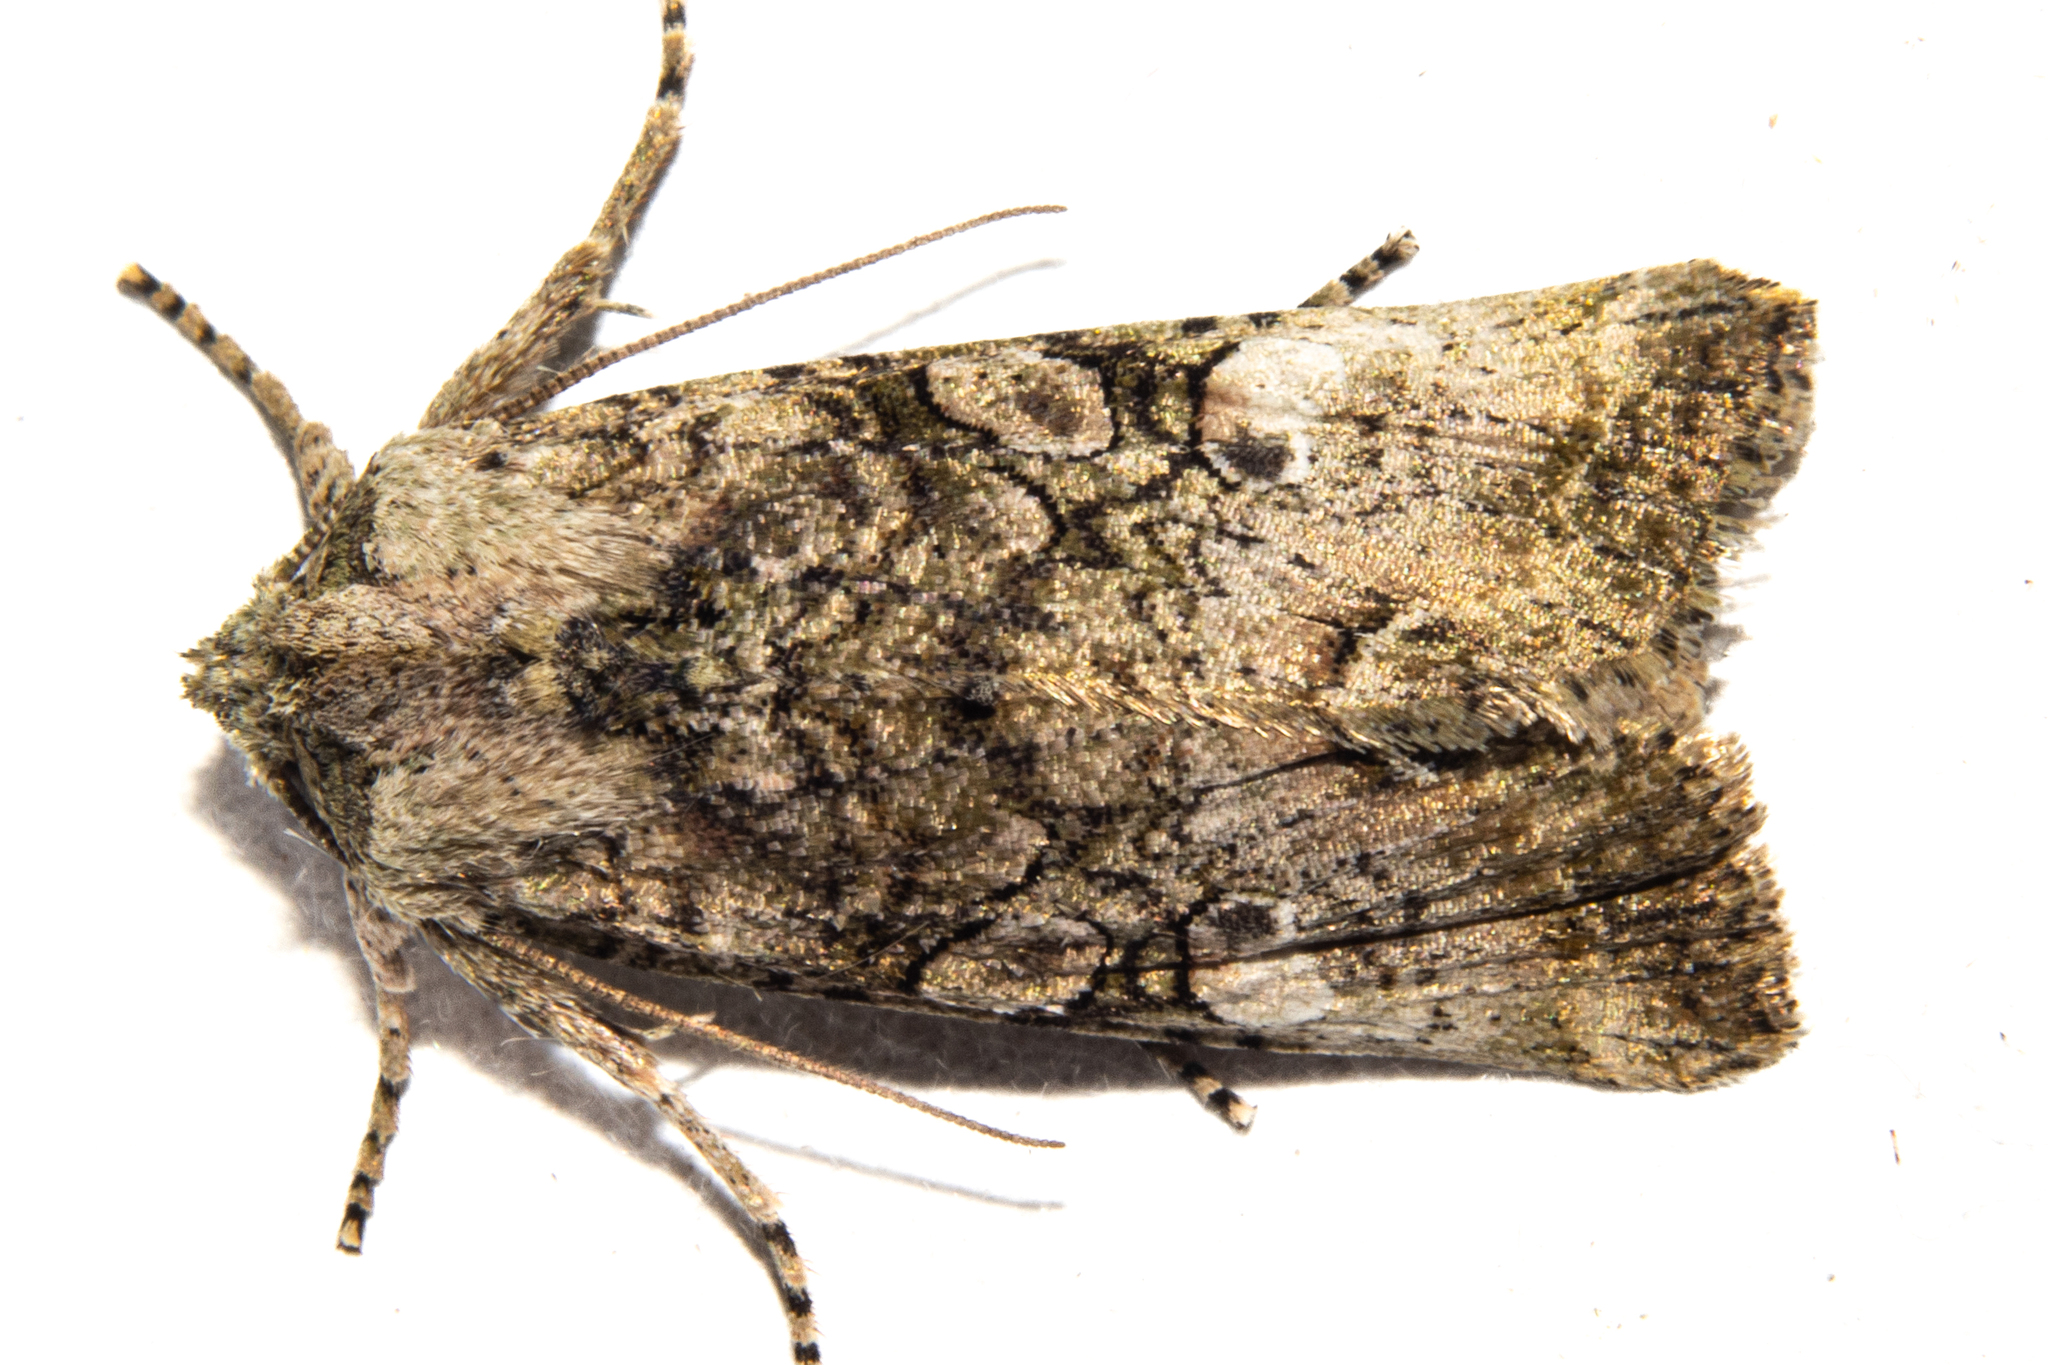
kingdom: Animalia
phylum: Arthropoda
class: Insecta
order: Lepidoptera
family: Noctuidae
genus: Meterana
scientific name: Meterana levis
